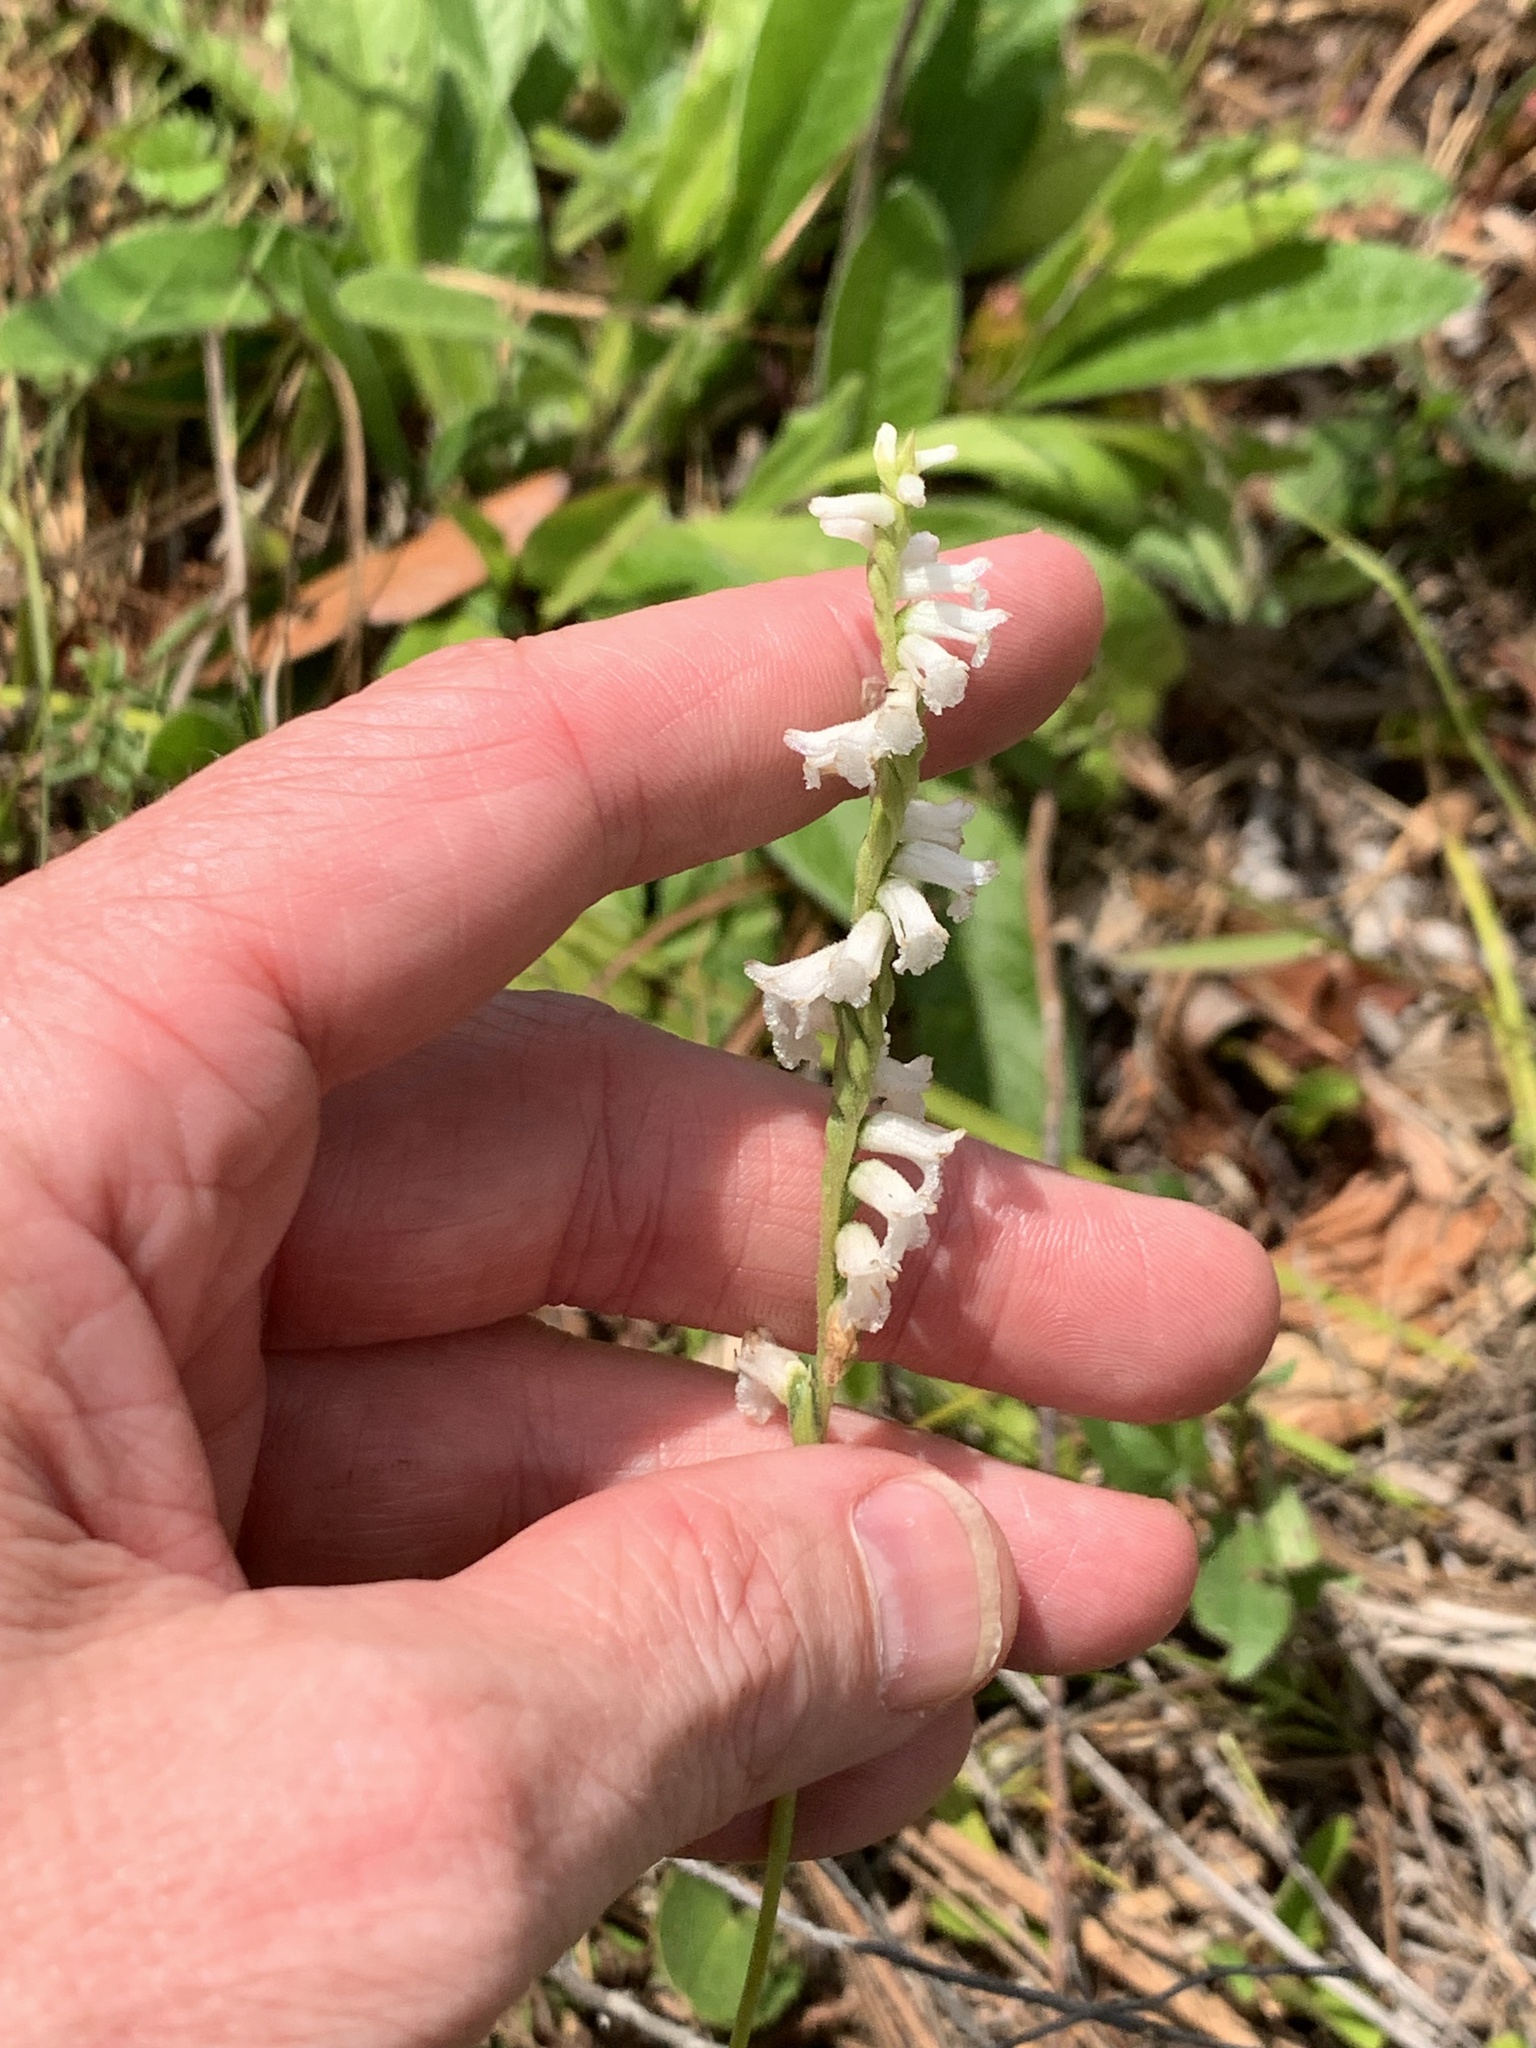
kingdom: Plantae
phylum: Tracheophyta
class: Liliopsida
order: Asparagales
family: Orchidaceae
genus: Spiranthes
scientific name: Spiranthes praecox
